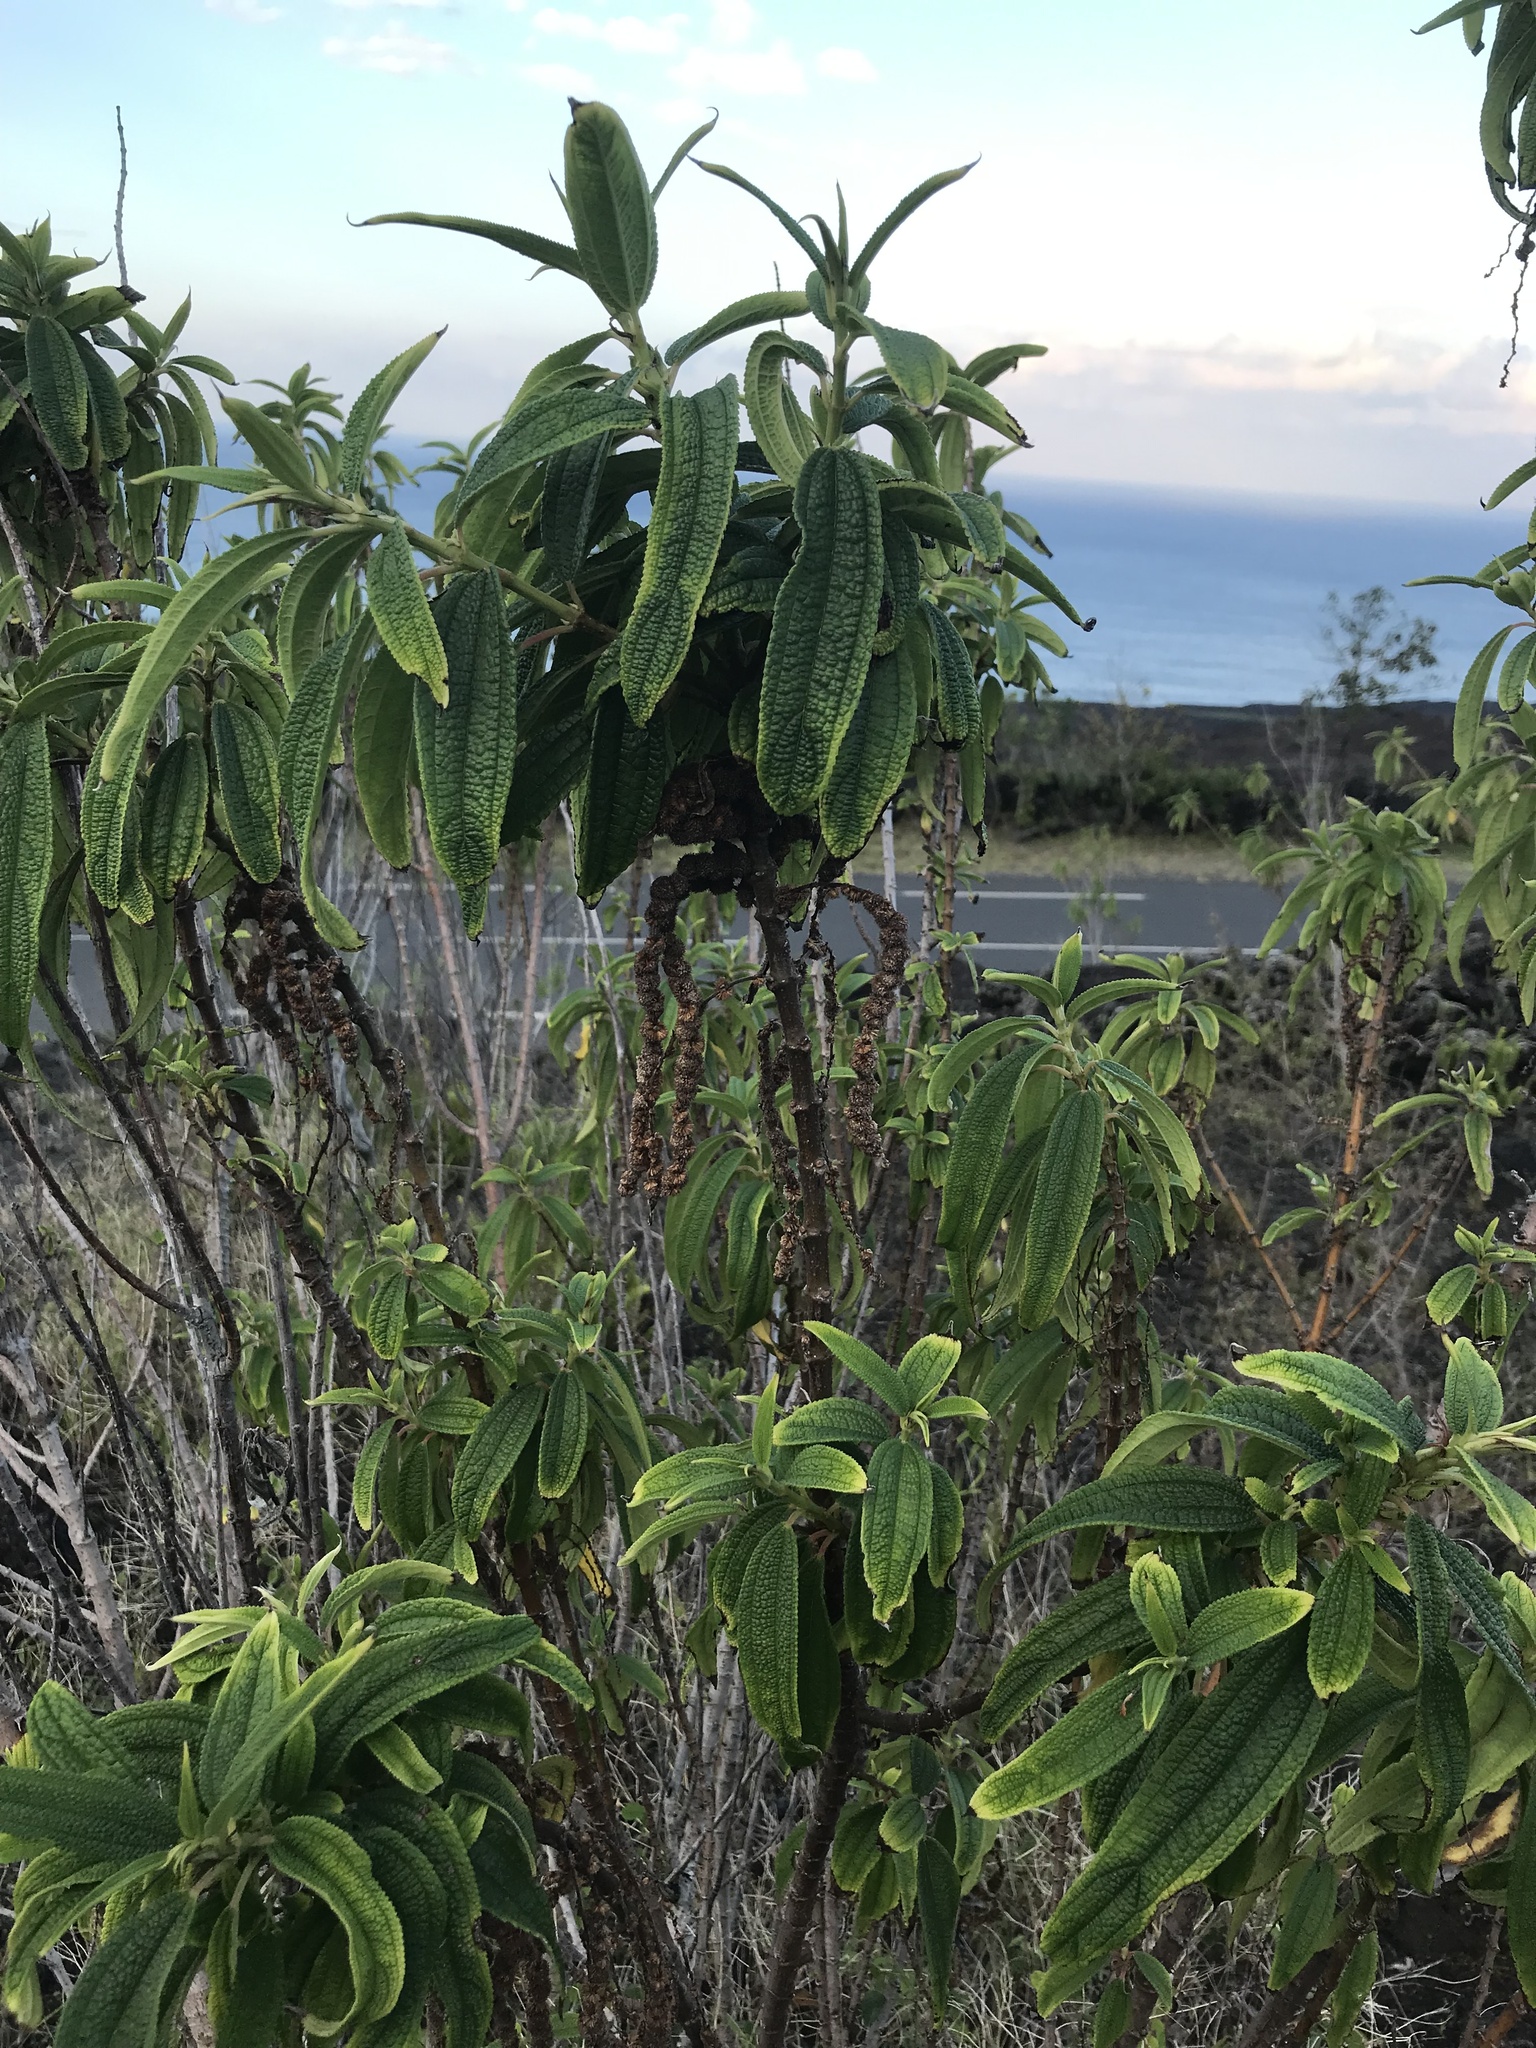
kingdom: Plantae
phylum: Tracheophyta
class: Magnoliopsida
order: Rosales
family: Urticaceae
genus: Boehmeria
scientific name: Boehmeria penduliflora
